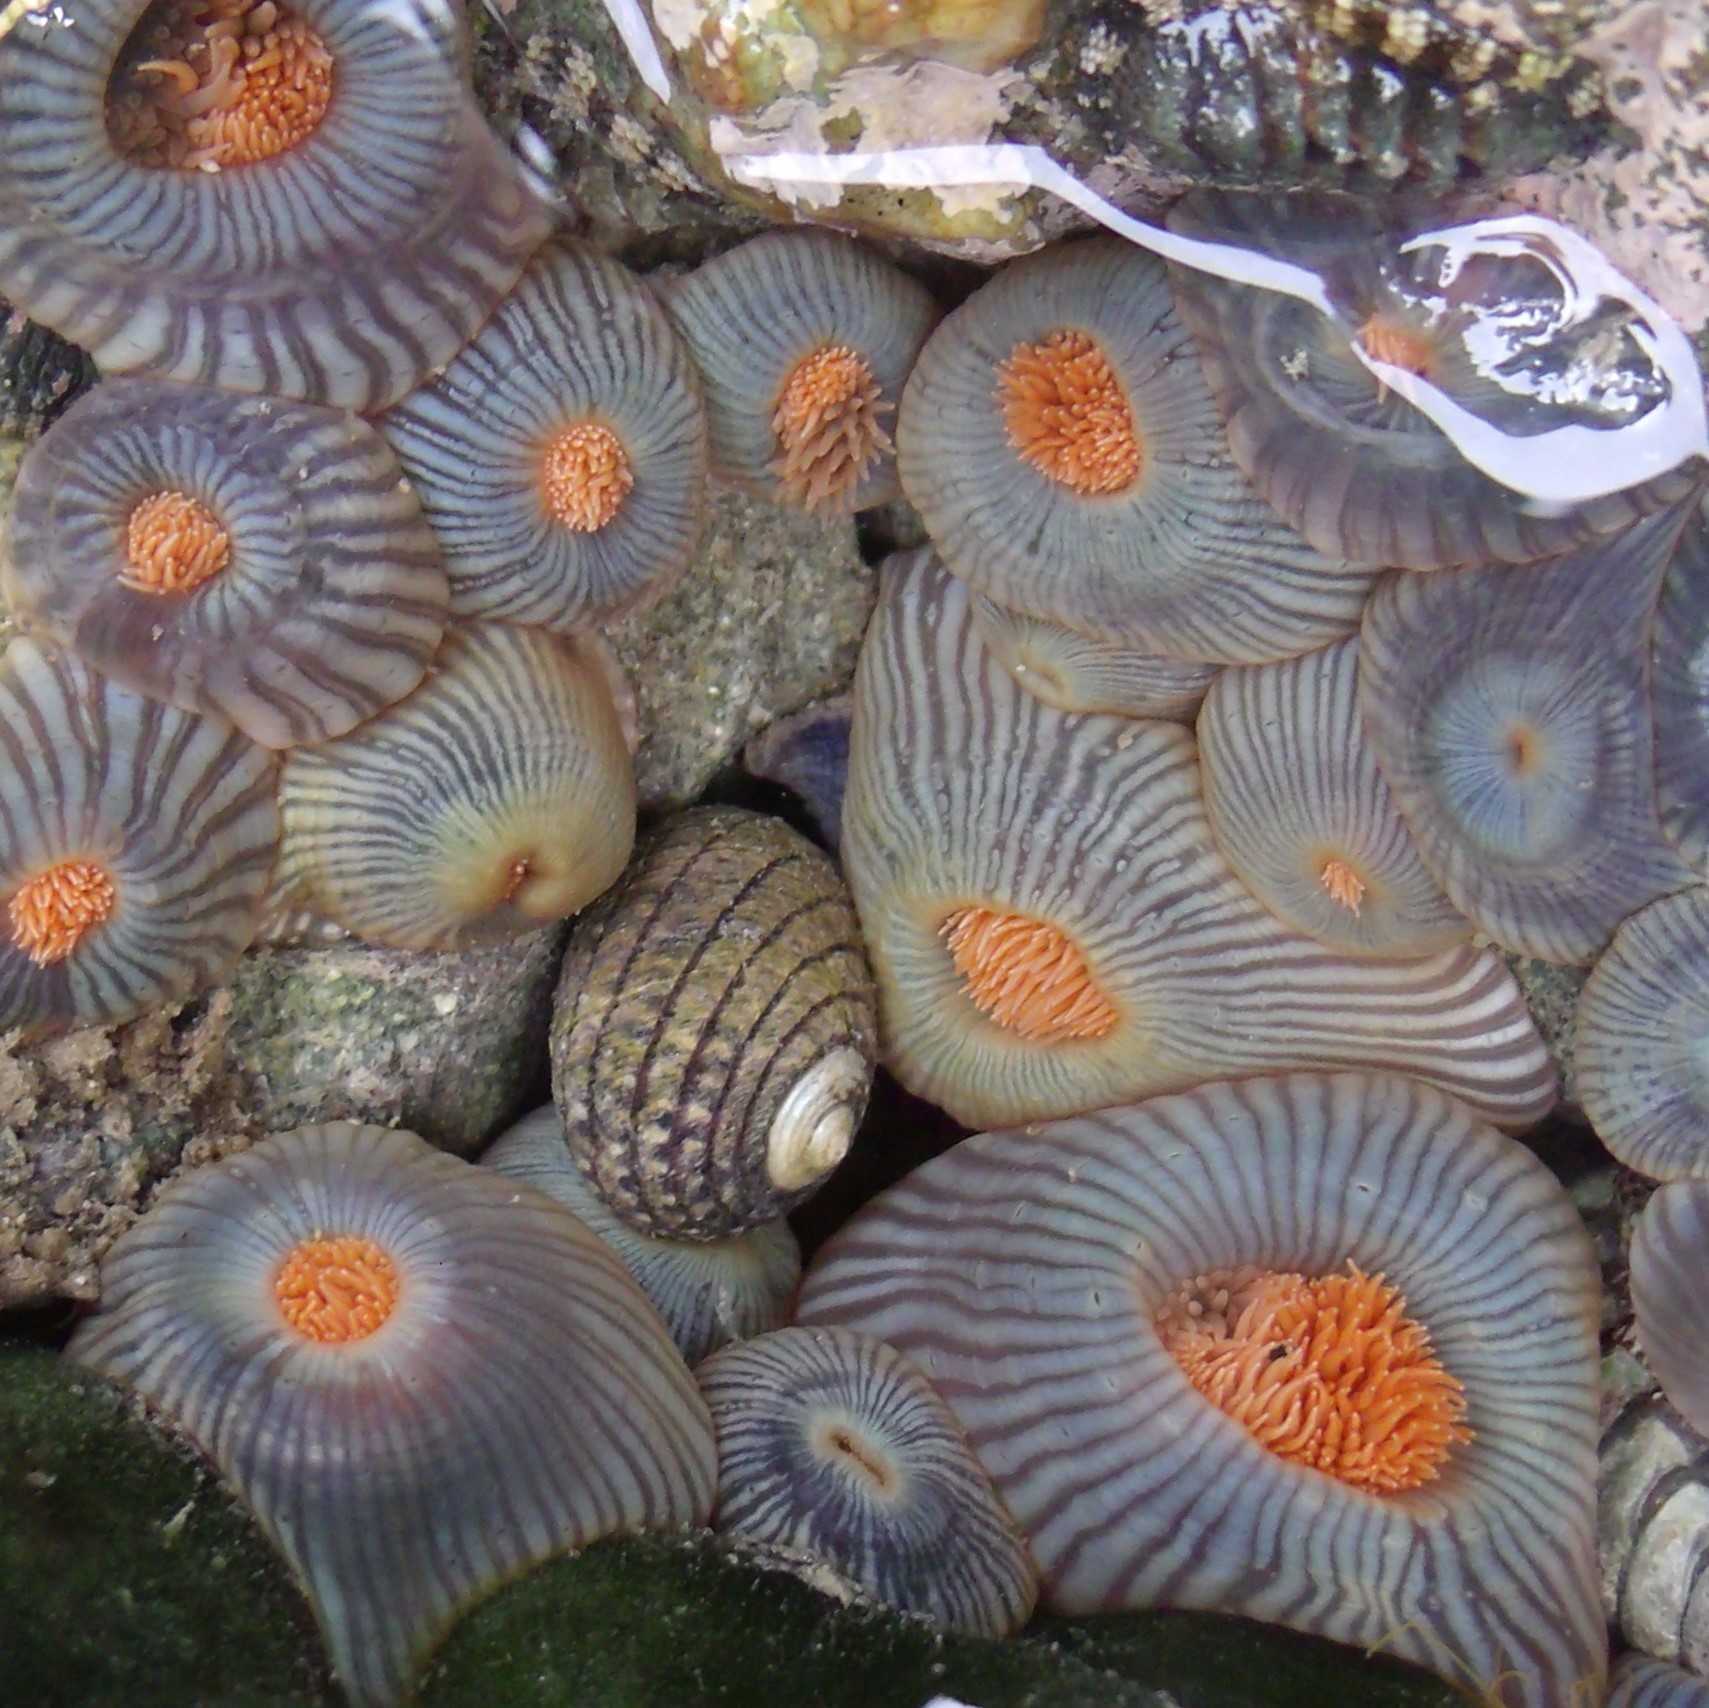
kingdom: Animalia
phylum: Cnidaria
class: Anthozoa
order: Actiniaria
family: Diadumenidae
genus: Diadumene
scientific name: Diadumene neozelanica
